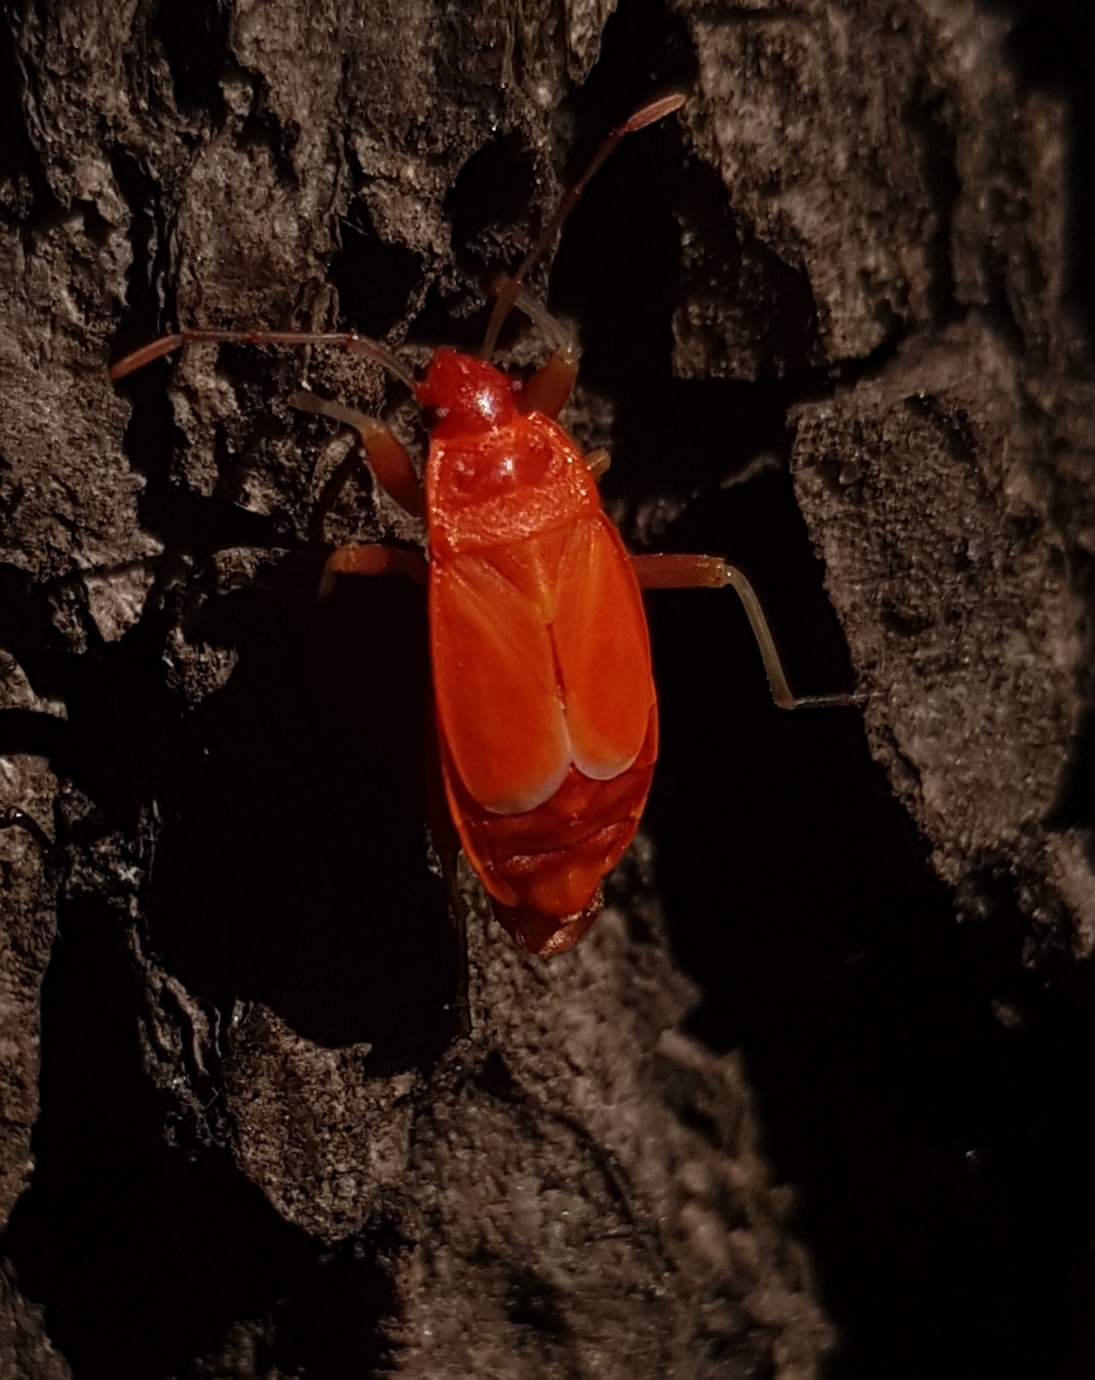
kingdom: Animalia
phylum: Arthropoda
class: Insecta
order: Hemiptera
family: Pyrrhocoridae
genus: Pyrrhocoris
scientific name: Pyrrhocoris apterus
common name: Firebug
